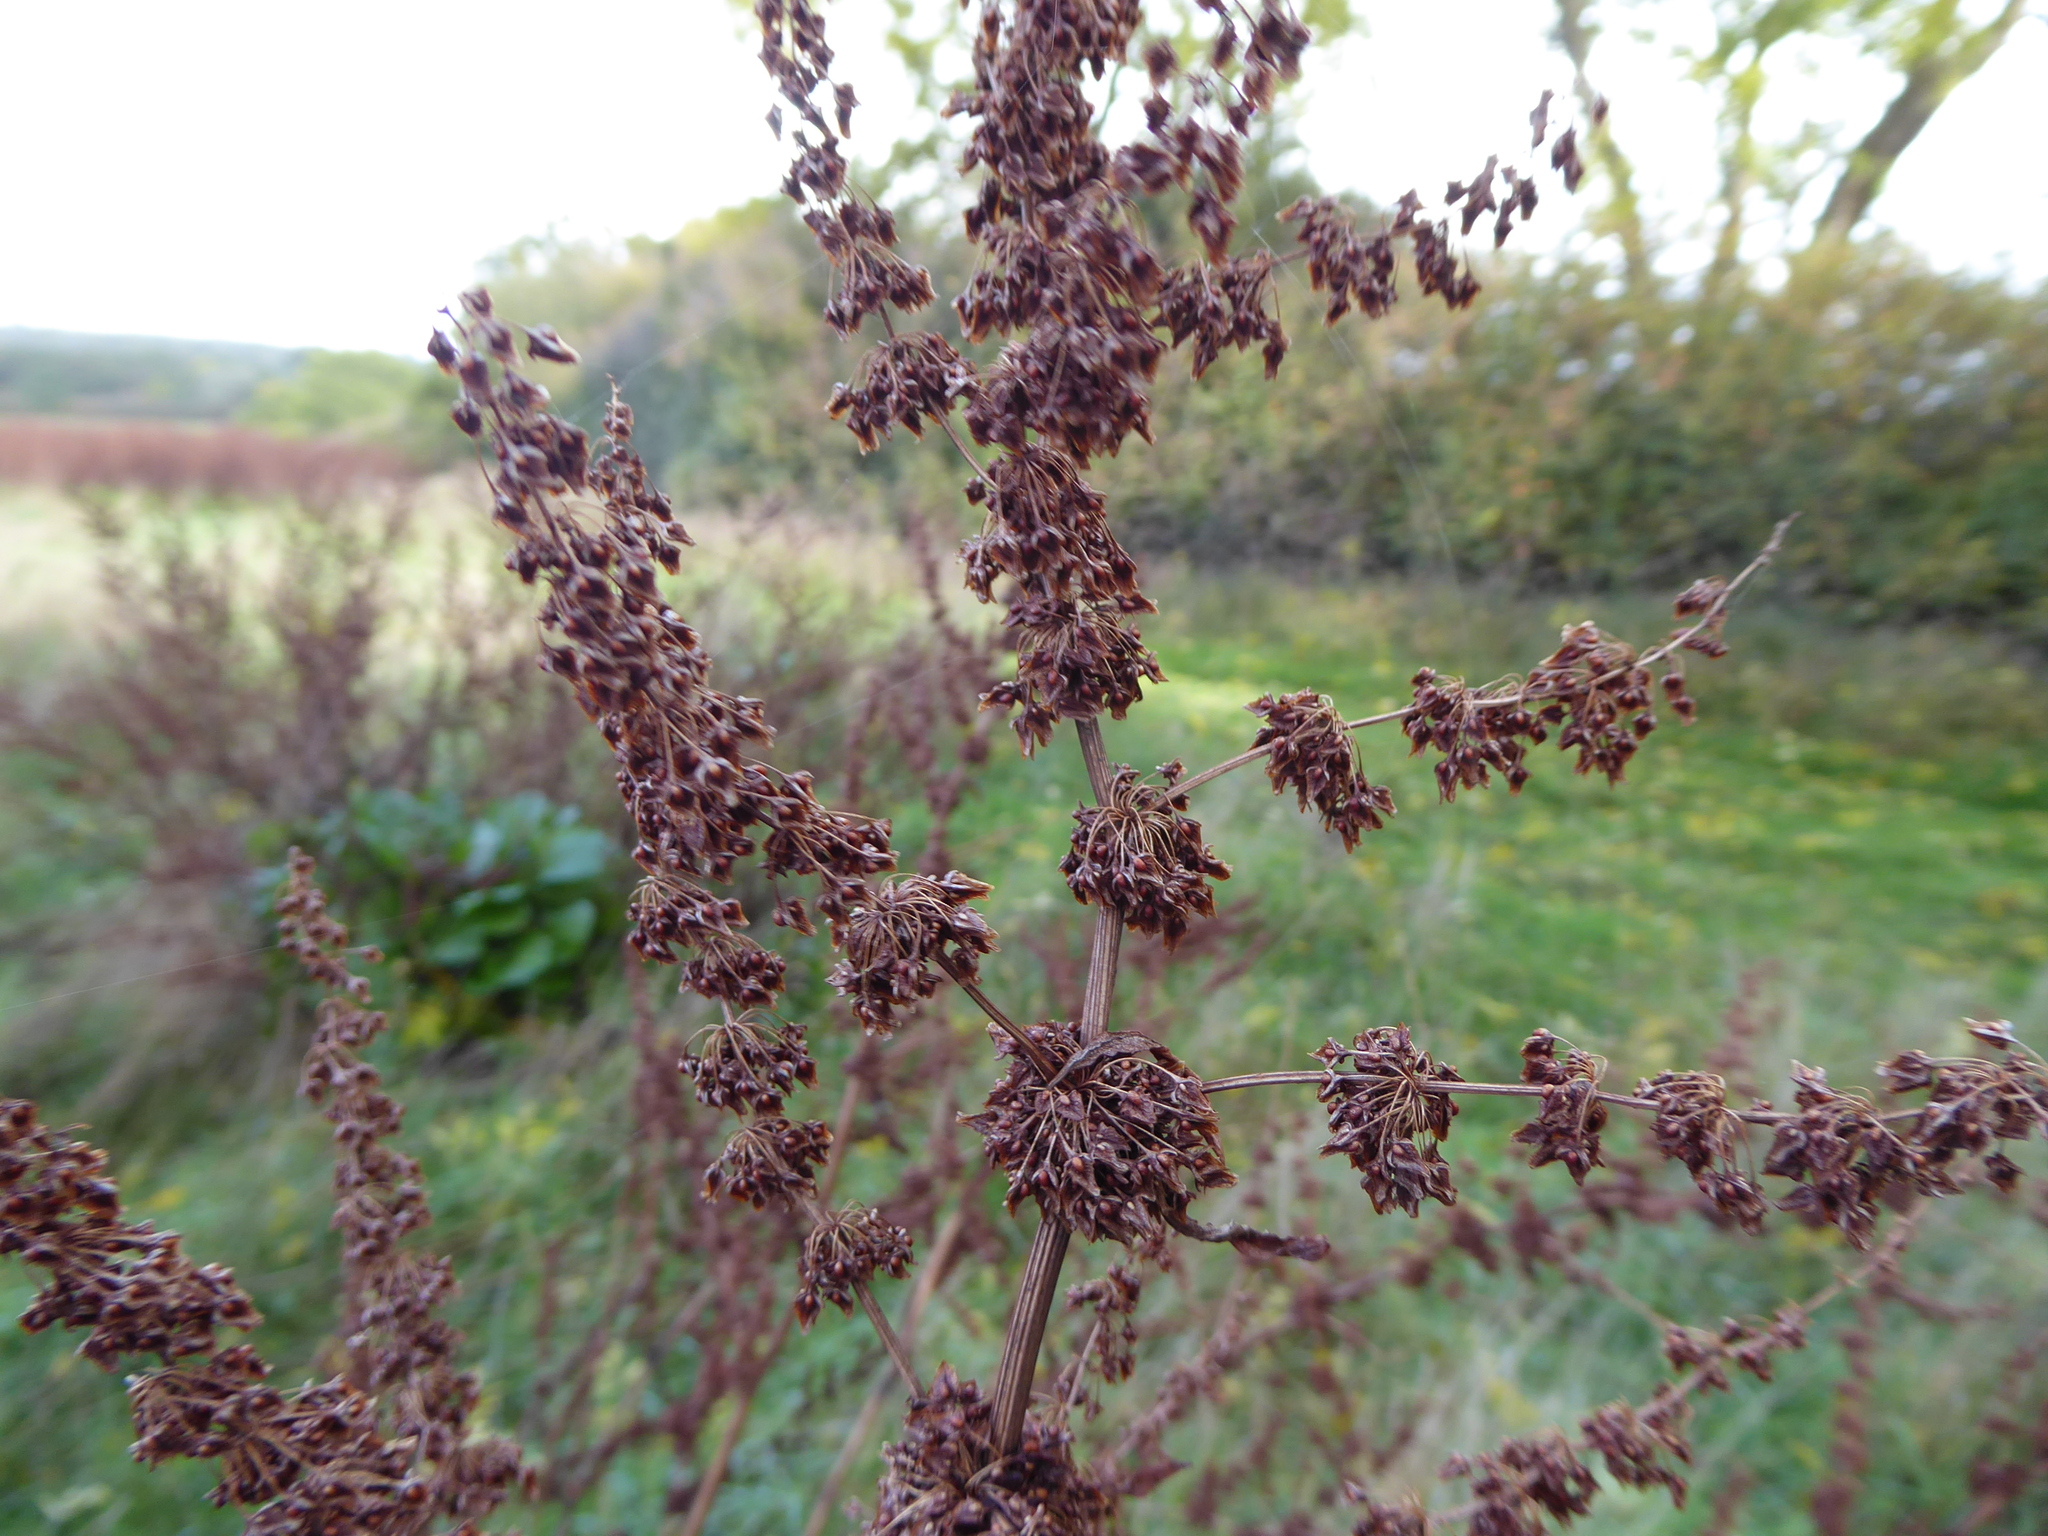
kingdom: Plantae
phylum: Tracheophyta
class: Magnoliopsida
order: Caryophyllales
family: Polygonaceae
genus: Rumex
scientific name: Rumex obtusifolius
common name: Bitter dock
